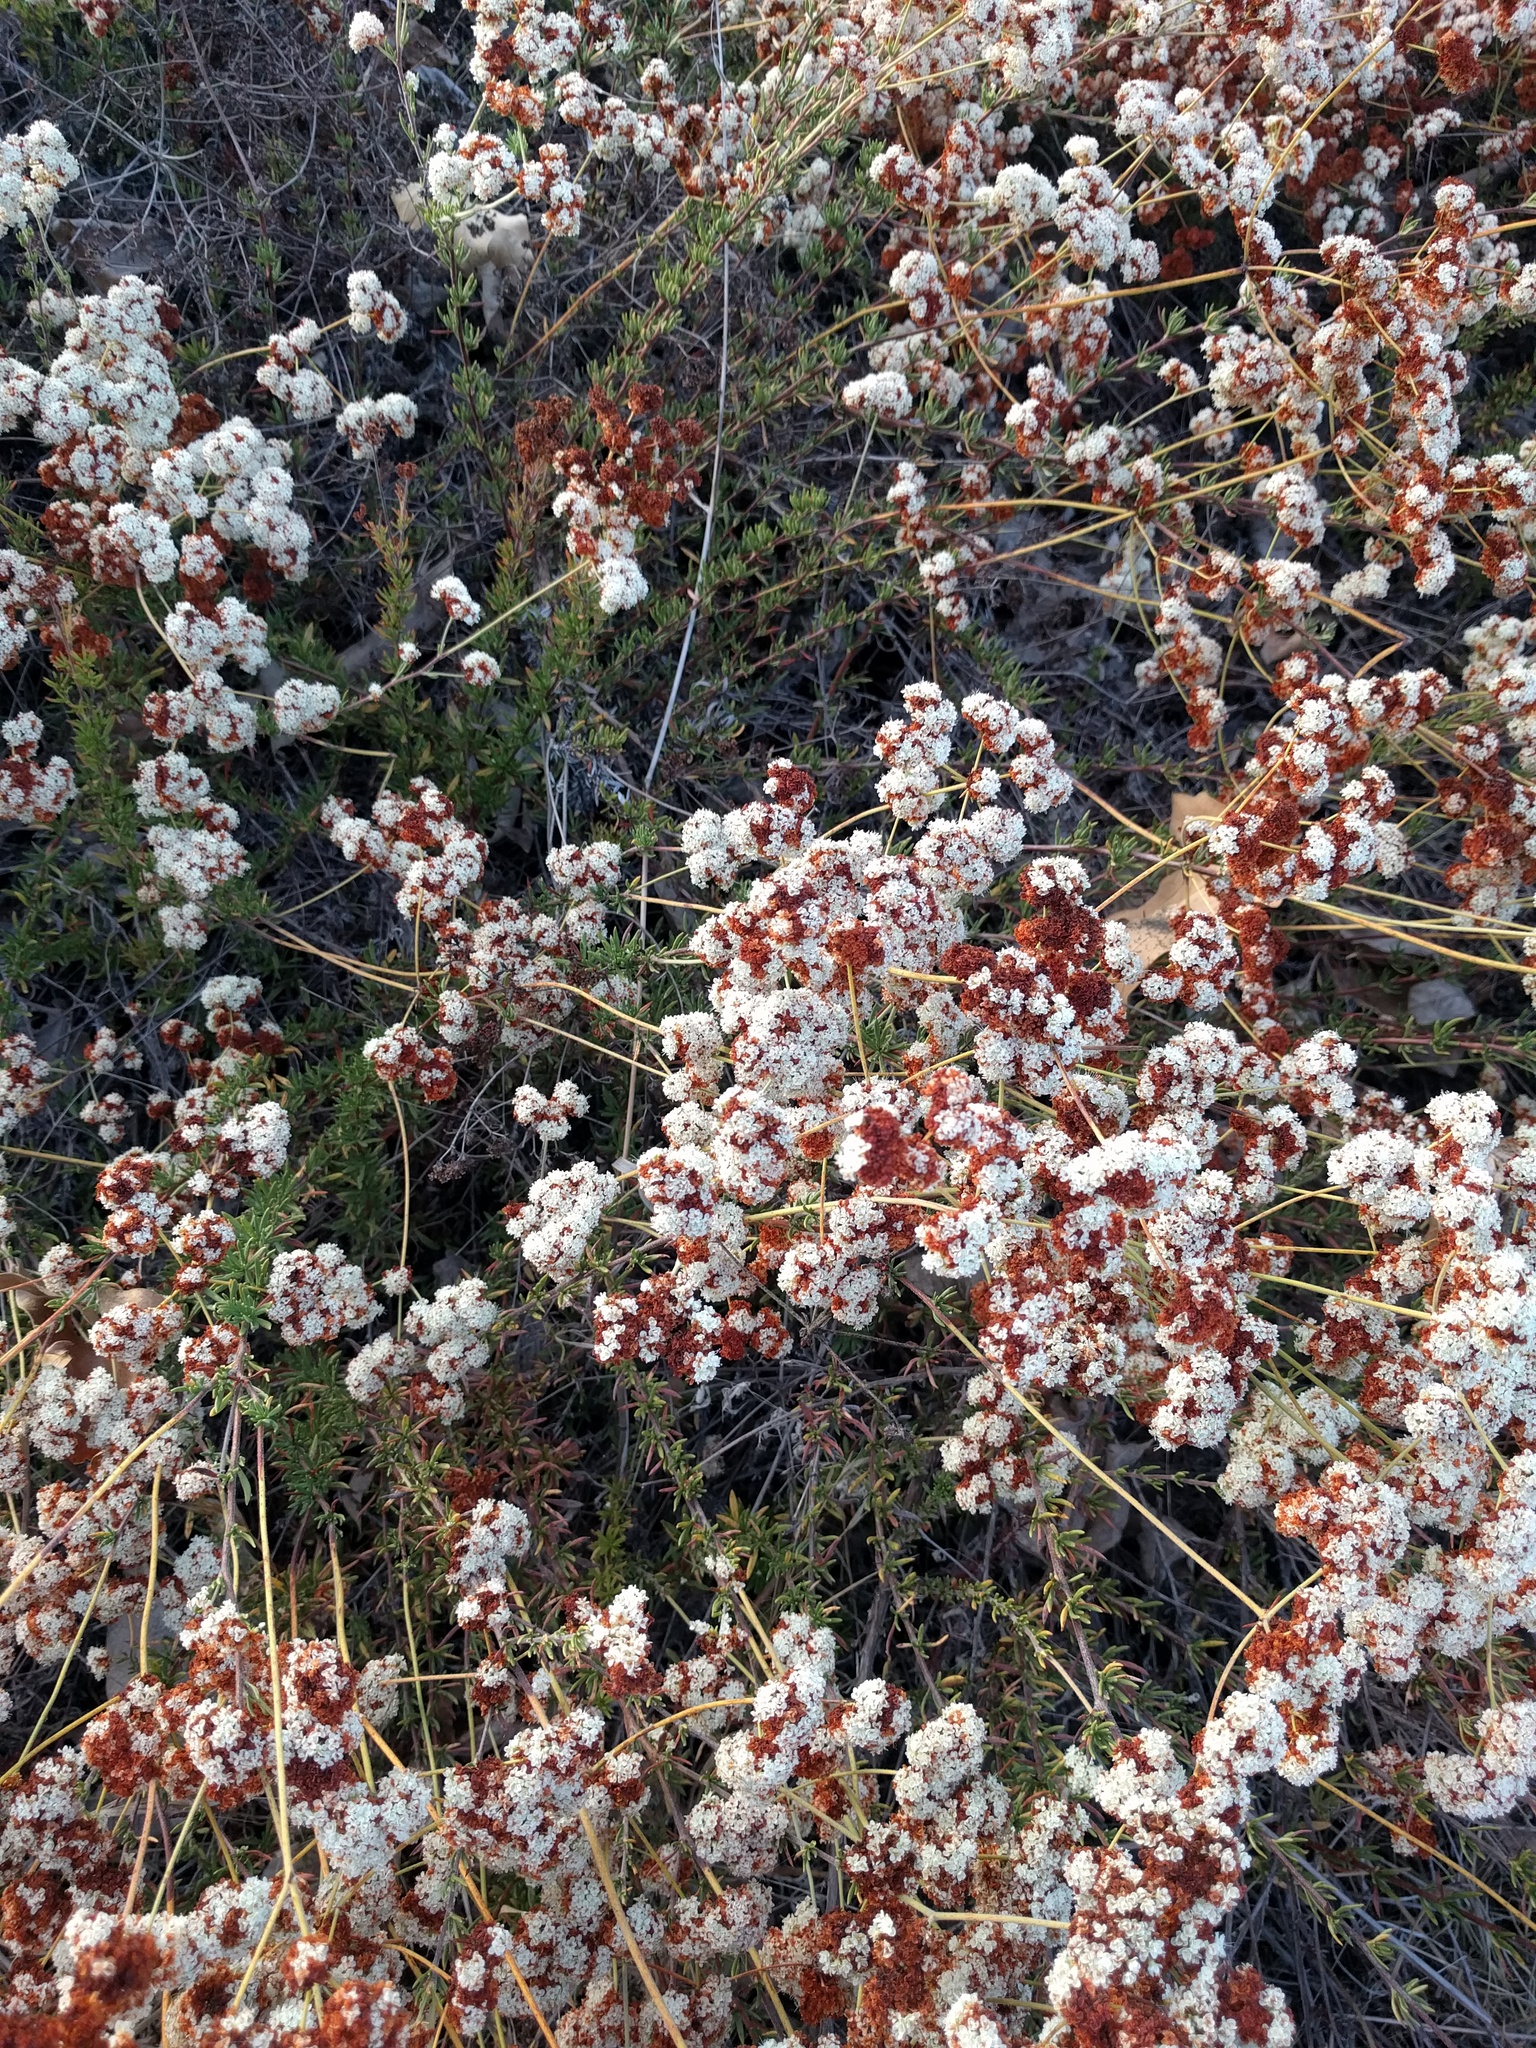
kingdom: Plantae
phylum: Tracheophyta
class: Magnoliopsida
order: Caryophyllales
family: Polygonaceae
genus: Eriogonum
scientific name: Eriogonum fasciculatum
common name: California wild buckwheat
